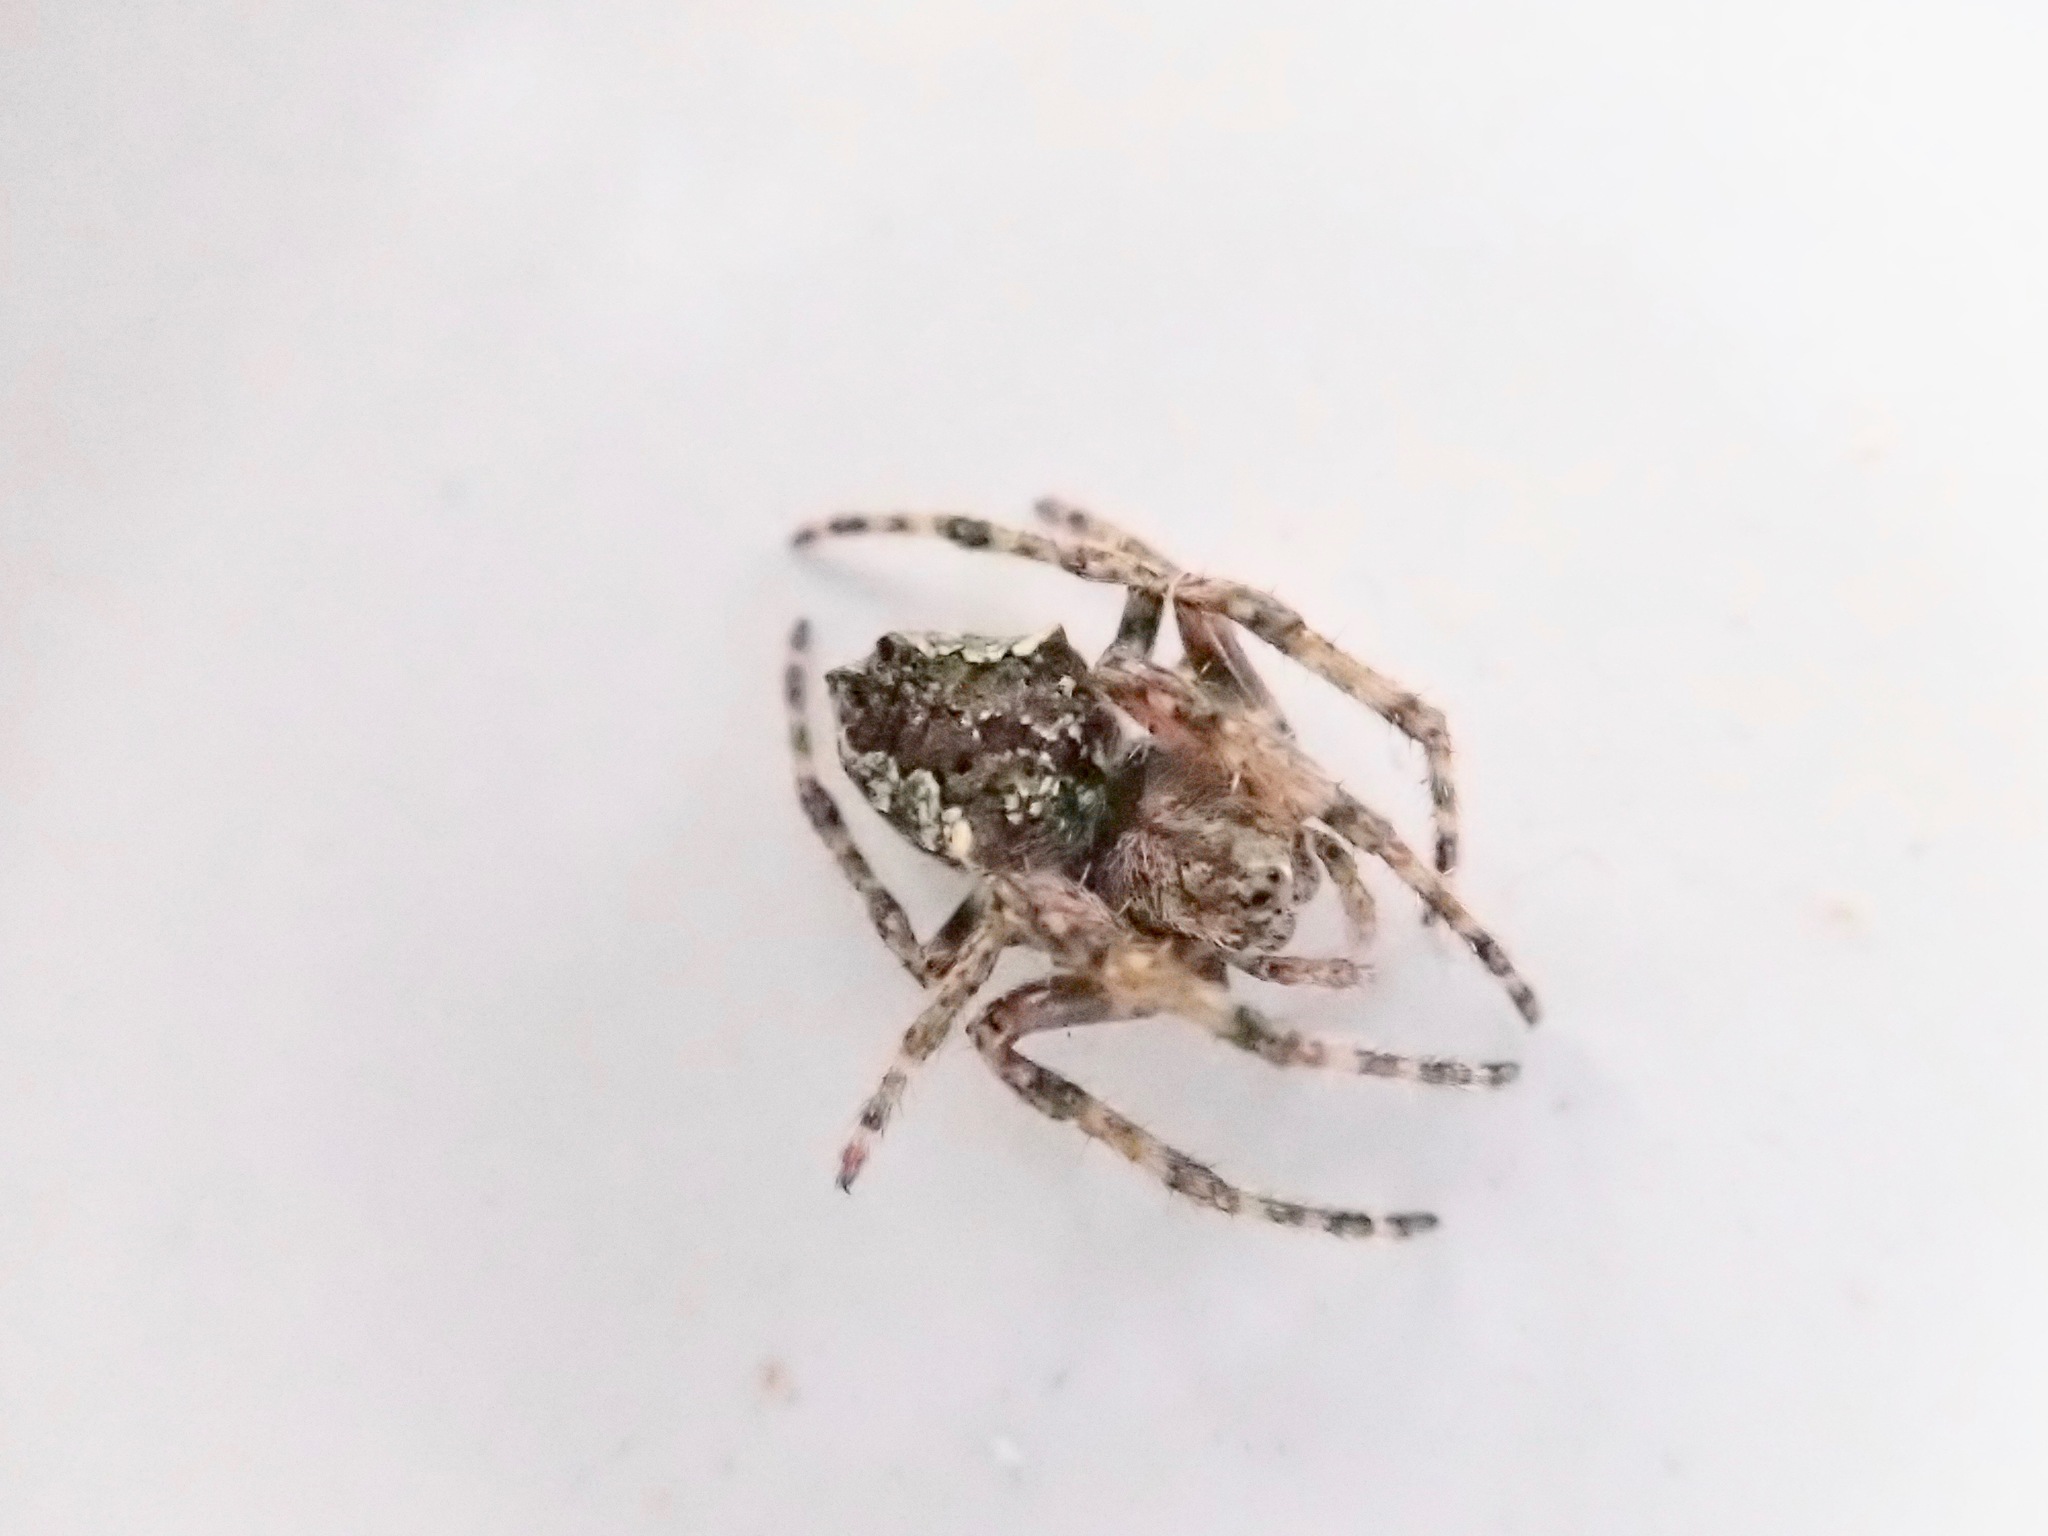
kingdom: Animalia
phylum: Arthropoda
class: Arachnida
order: Araneae
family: Araneidae
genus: Eriophora
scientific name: Eriophora pustulosa
